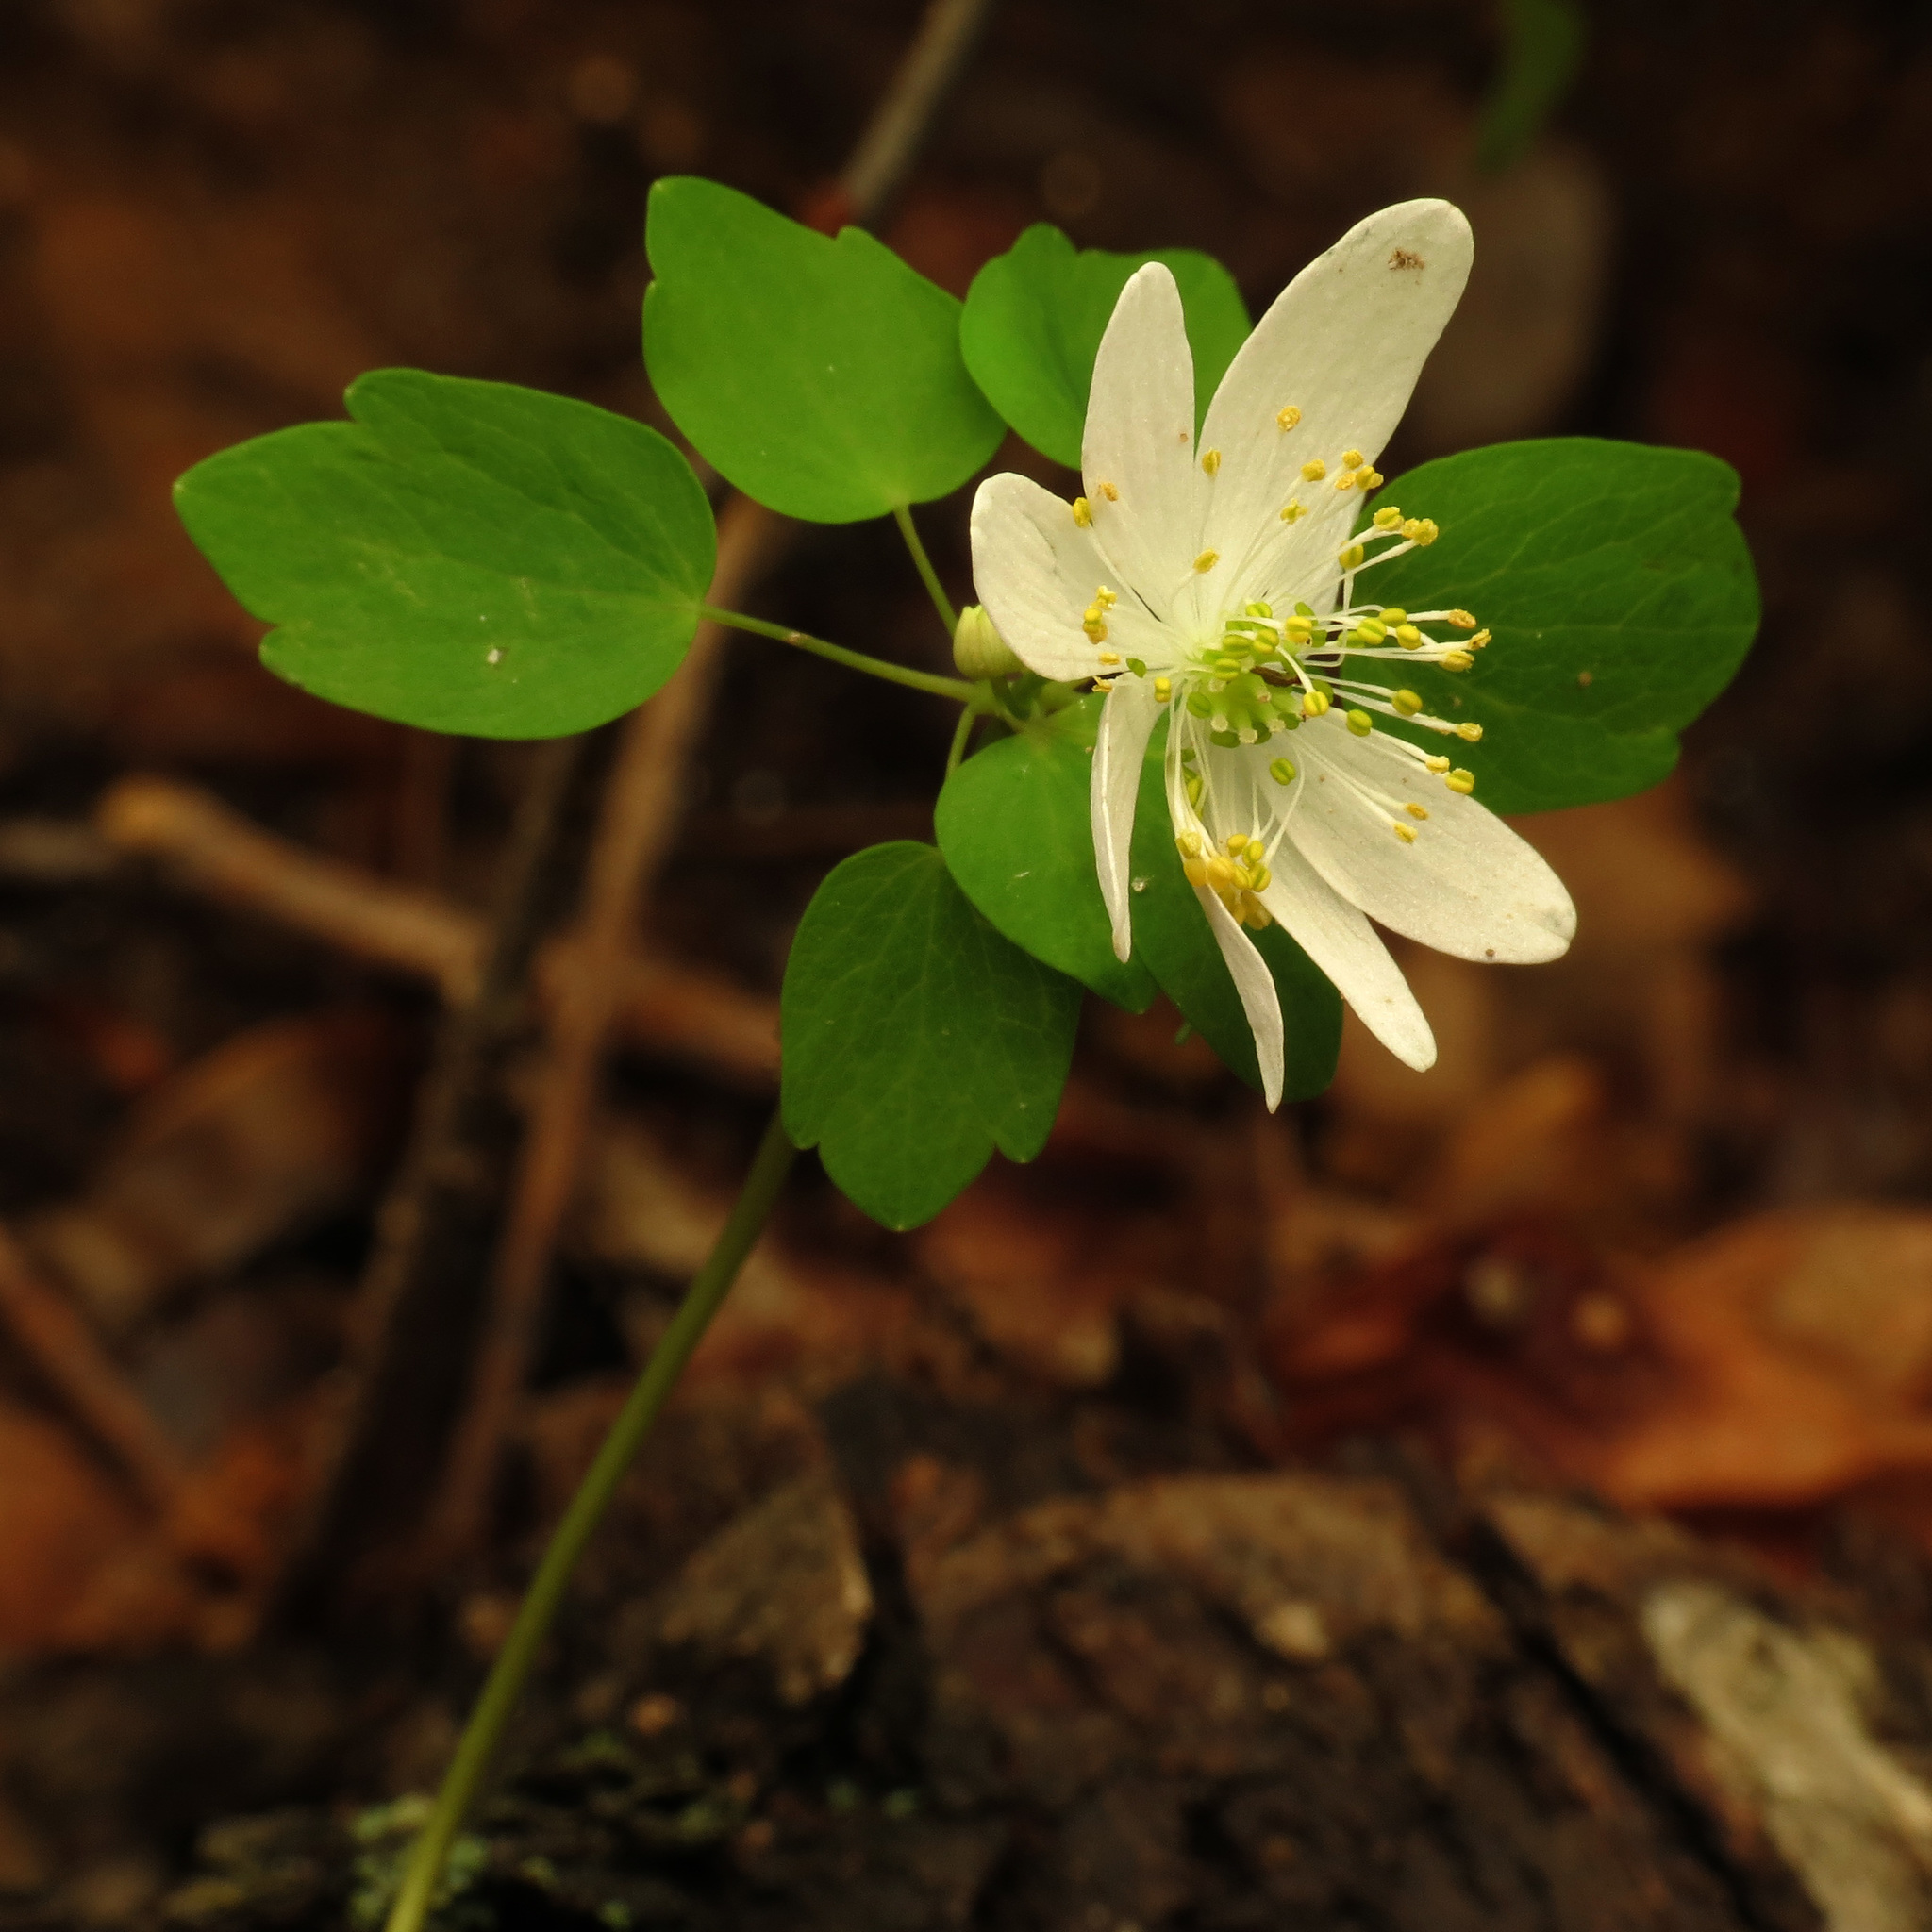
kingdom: Plantae
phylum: Tracheophyta
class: Magnoliopsida
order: Ranunculales
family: Ranunculaceae
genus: Thalictrum
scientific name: Thalictrum thalictroides
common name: Rue-anemone
